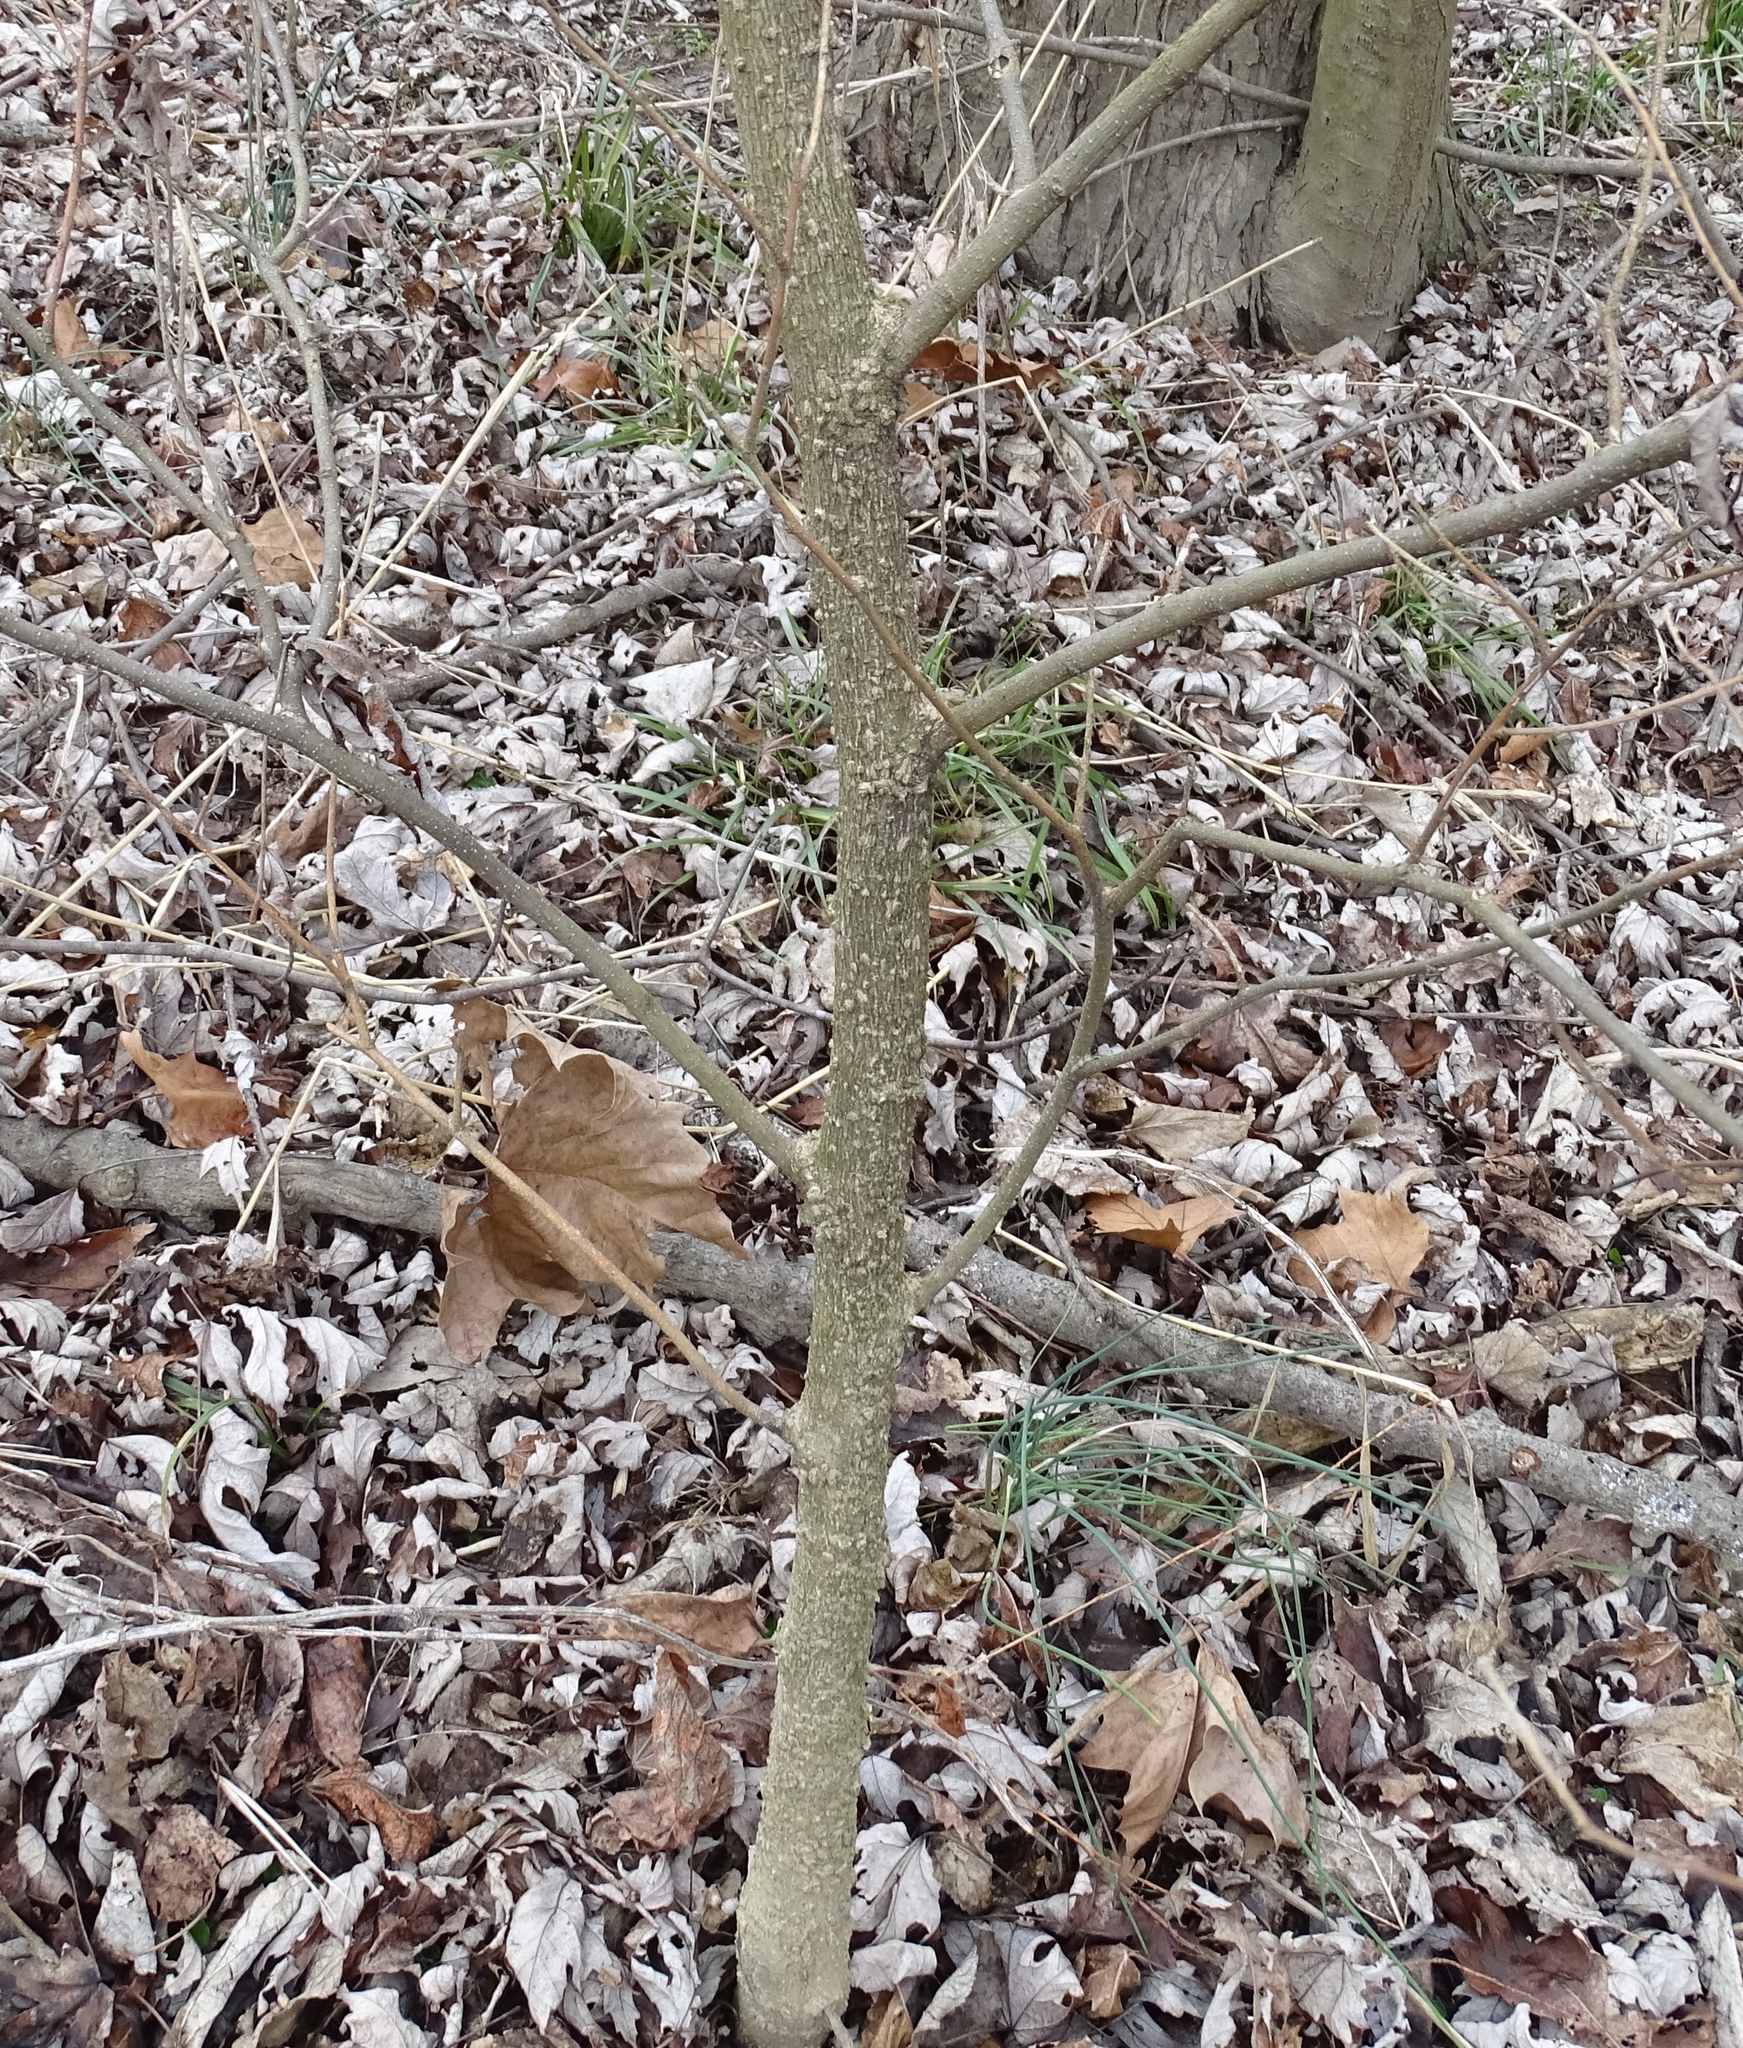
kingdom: Plantae
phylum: Tracheophyta
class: Magnoliopsida
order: Rosales
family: Cannabaceae
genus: Celtis
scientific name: Celtis occidentalis
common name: Common hackberry
